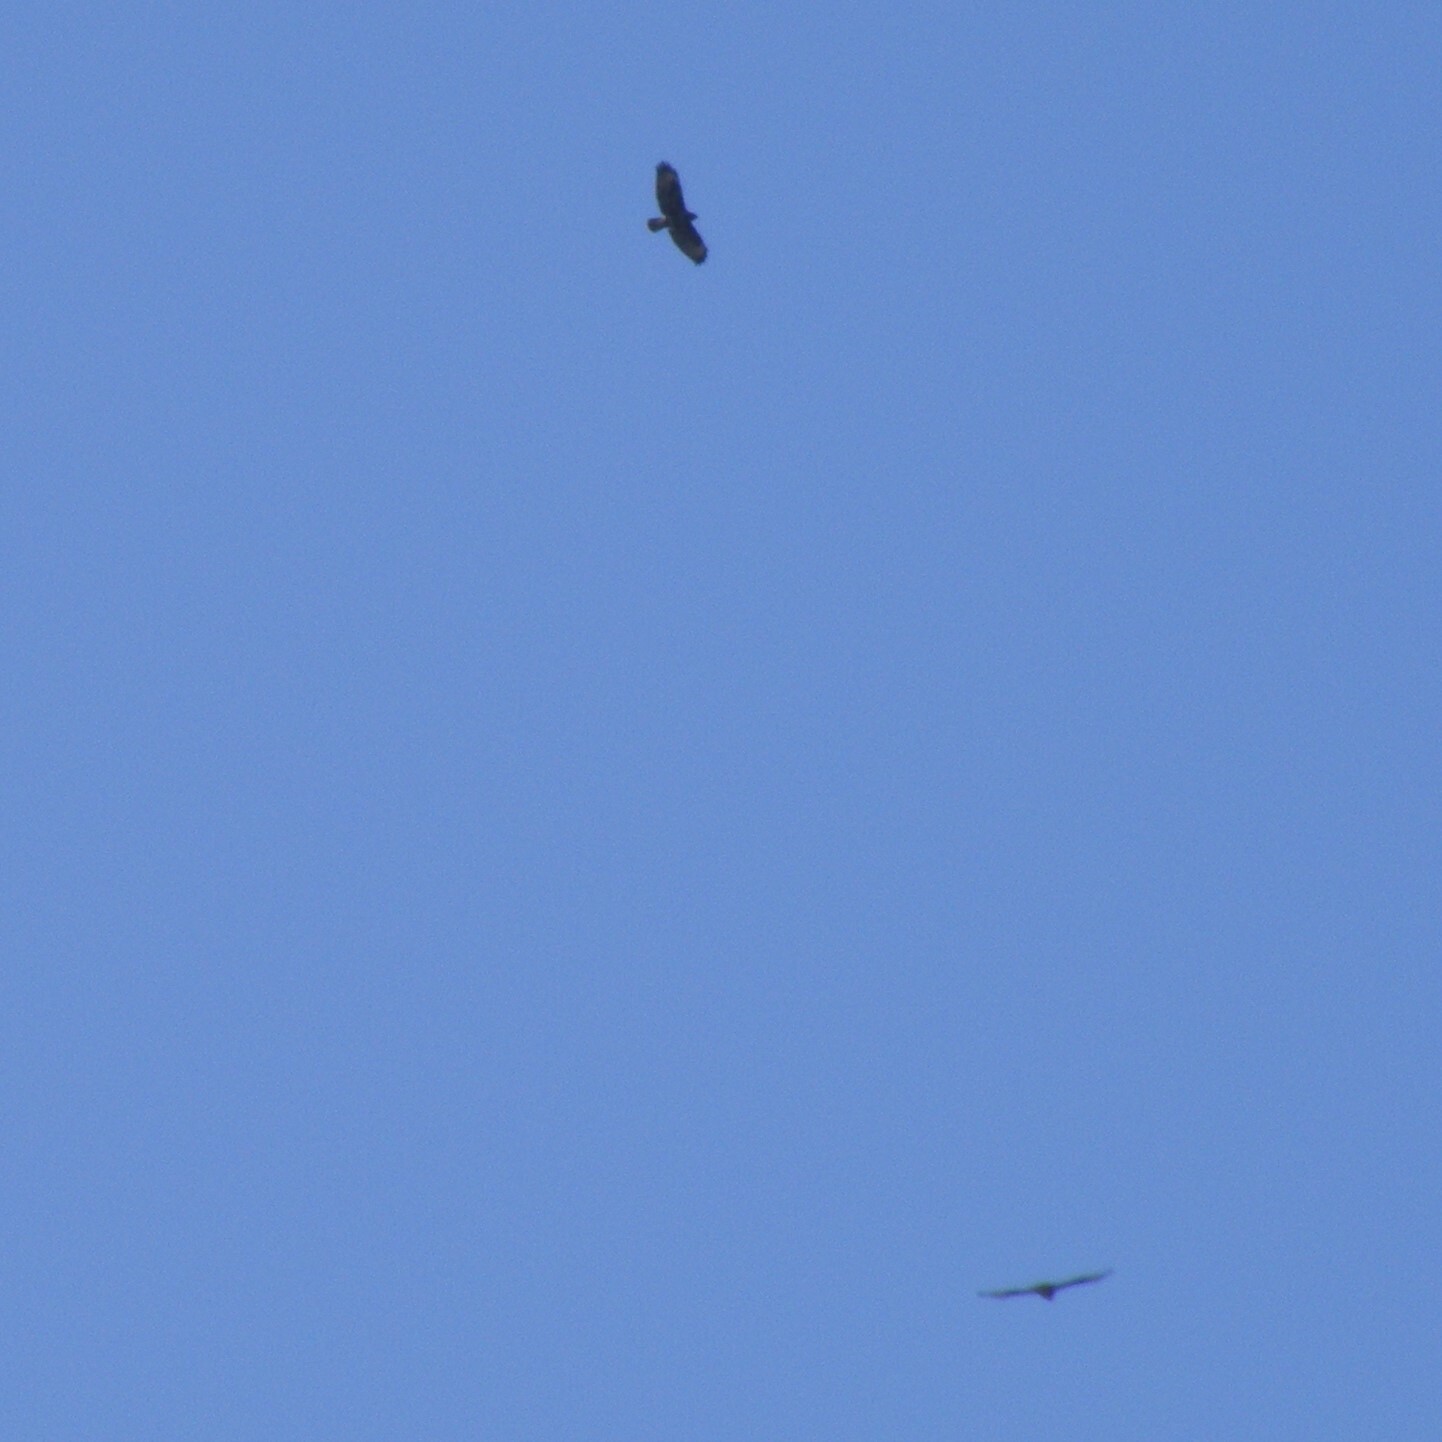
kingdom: Animalia
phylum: Chordata
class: Aves
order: Accipitriformes
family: Accipitridae
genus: Buteo
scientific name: Buteo buteo
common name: Common buzzard
